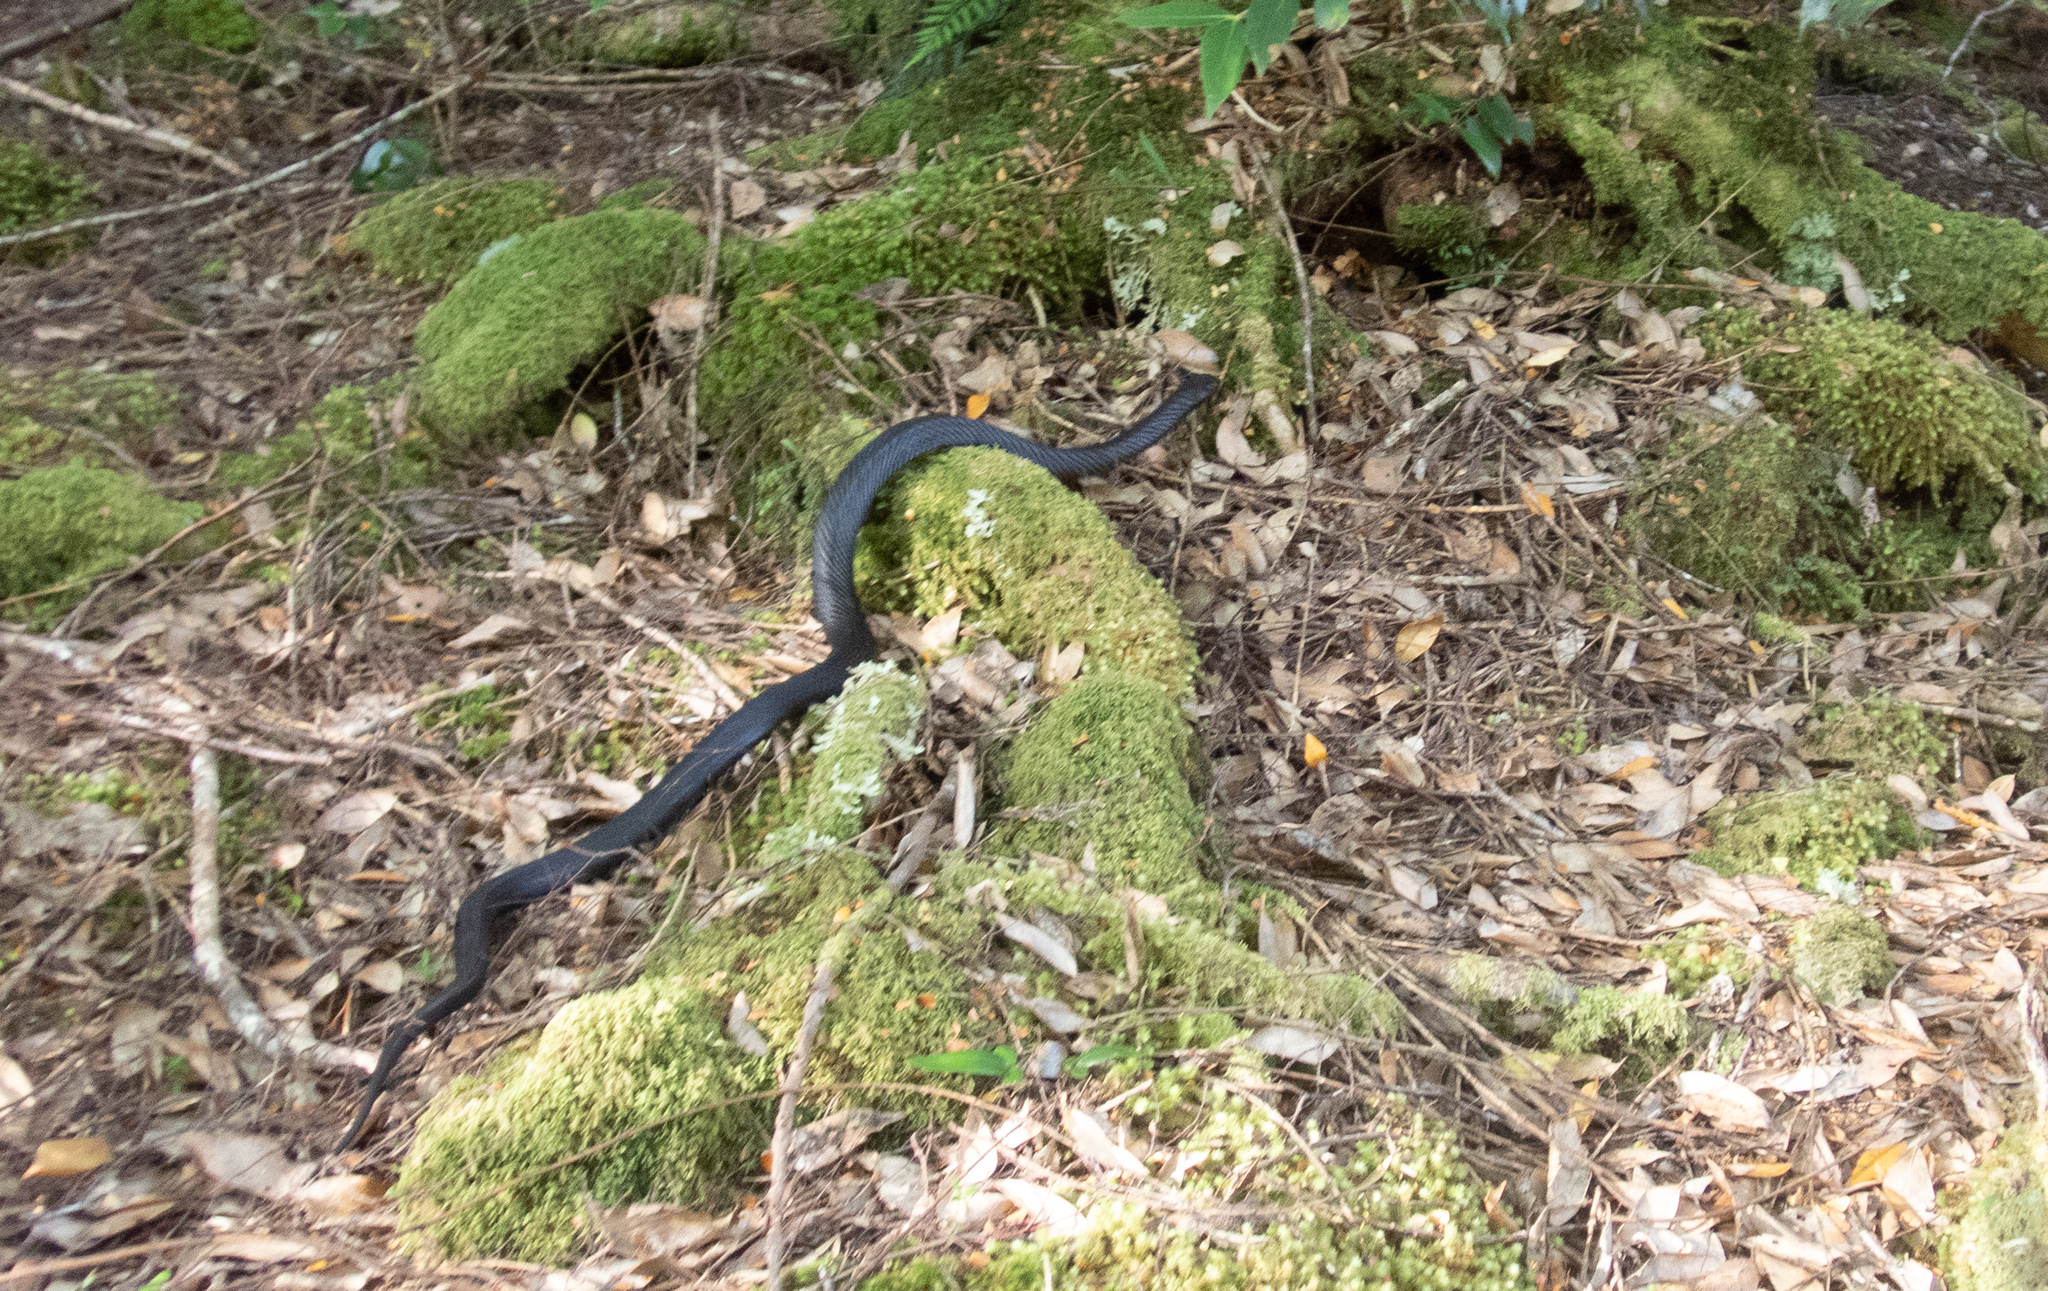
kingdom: Animalia
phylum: Chordata
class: Squamata
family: Elapidae
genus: Notechis
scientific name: Notechis scutatus
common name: Mainland tiger snake
